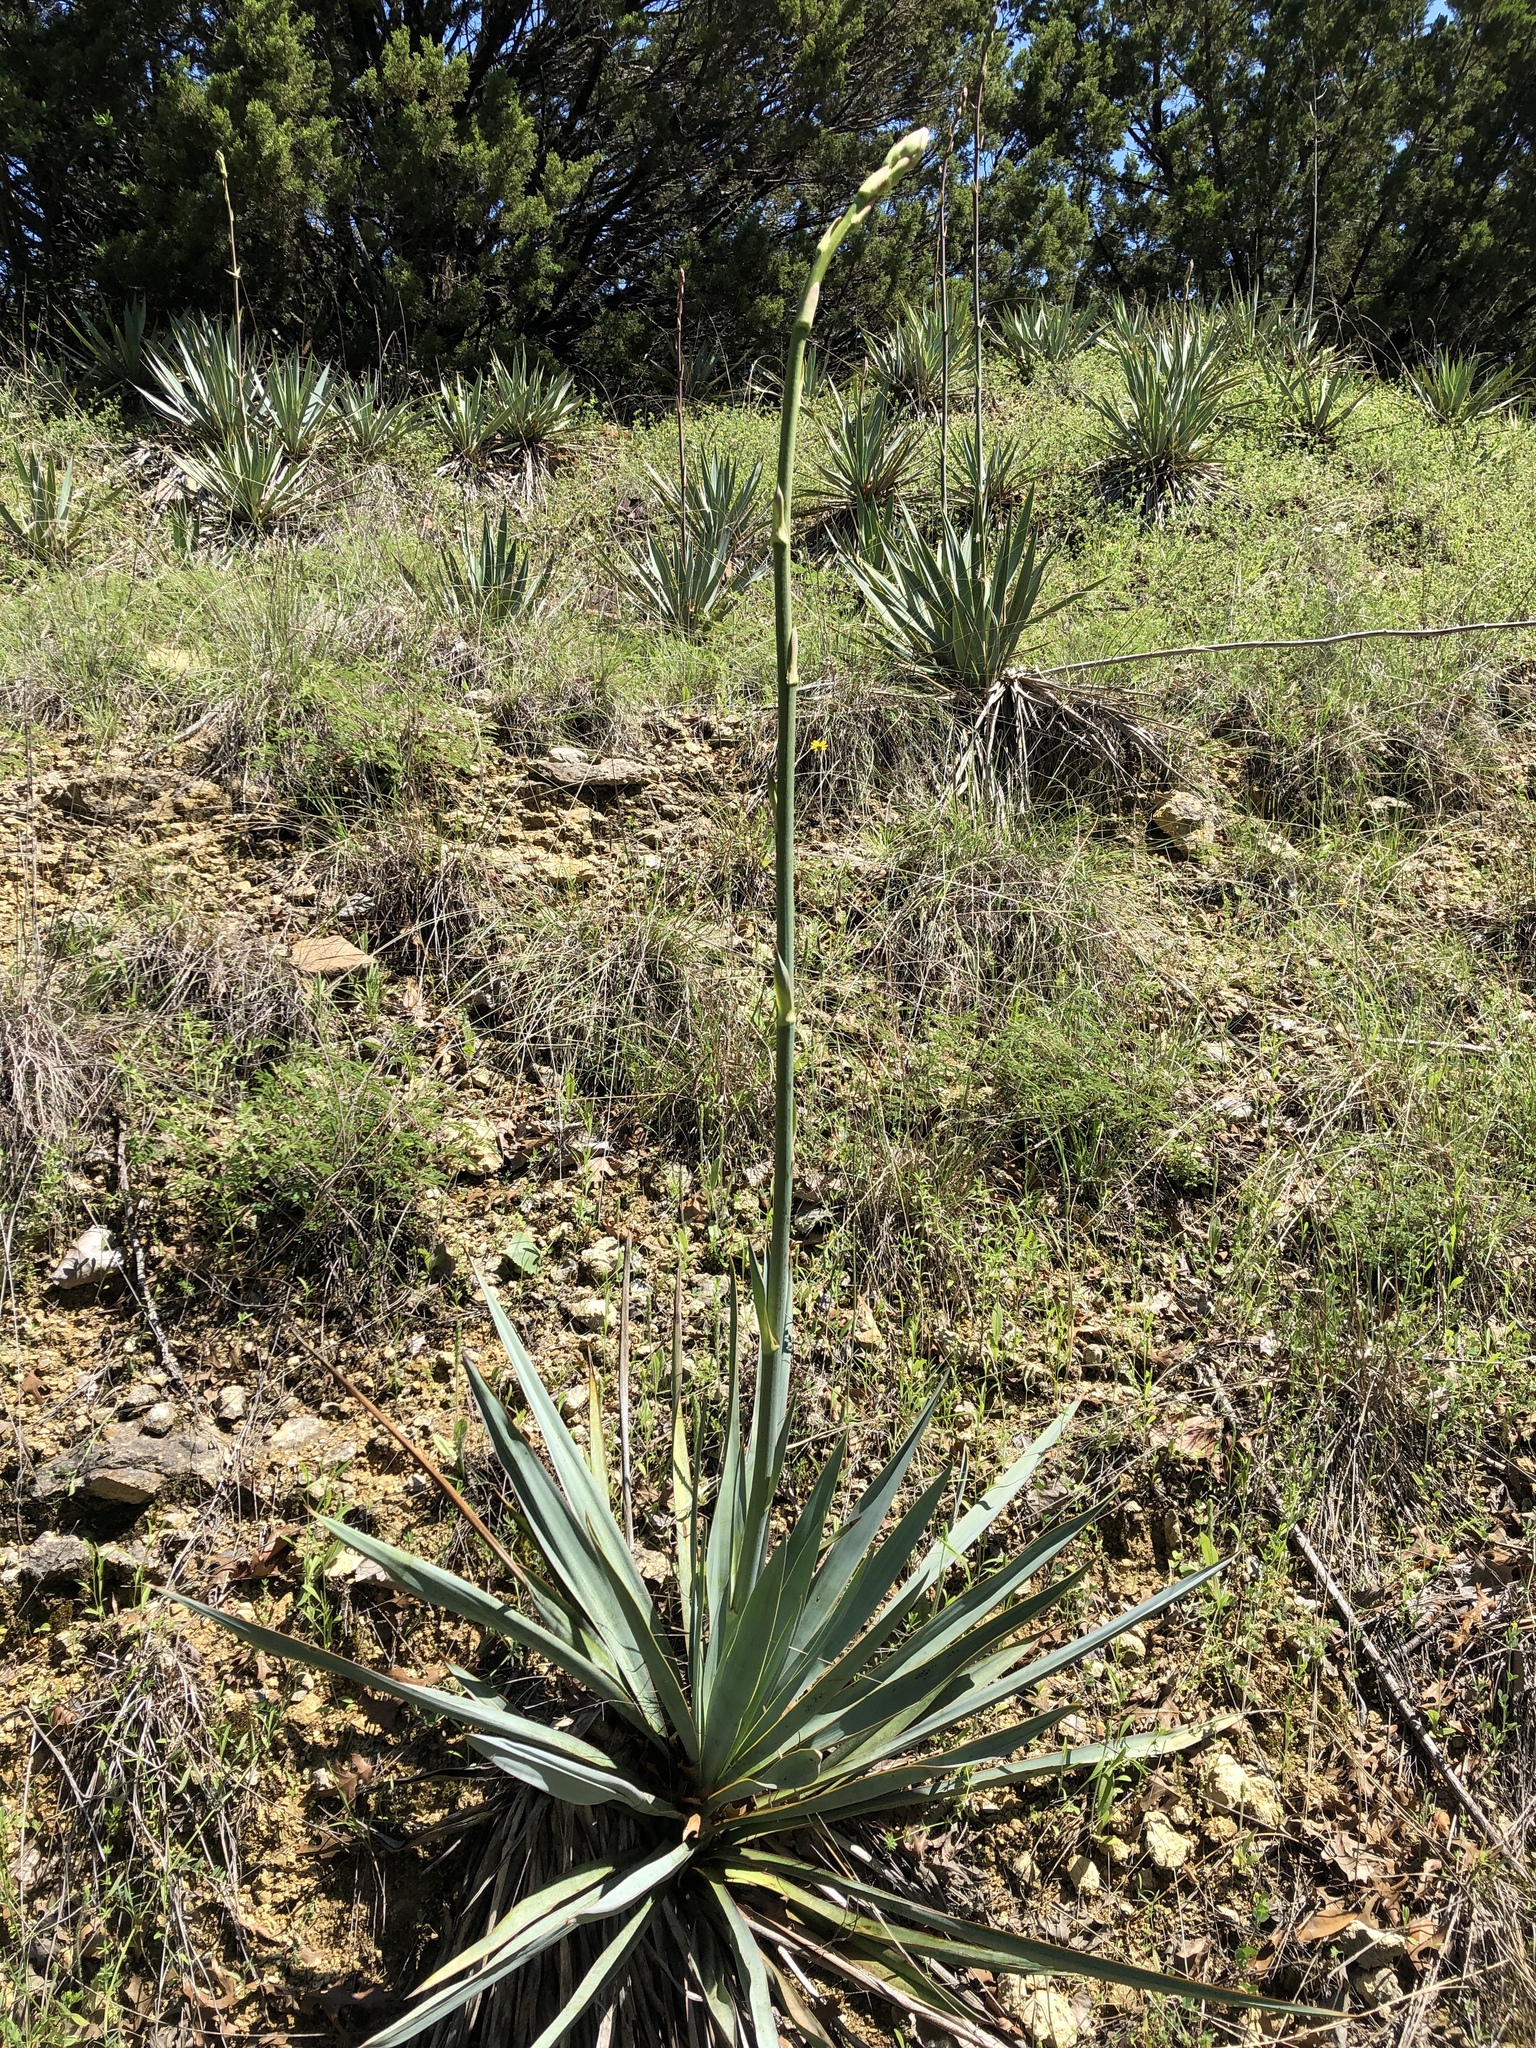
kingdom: Plantae
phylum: Tracheophyta
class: Liliopsida
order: Asparagales
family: Asparagaceae
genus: Yucca
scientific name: Yucca pallida
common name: Pale leaf yucca
